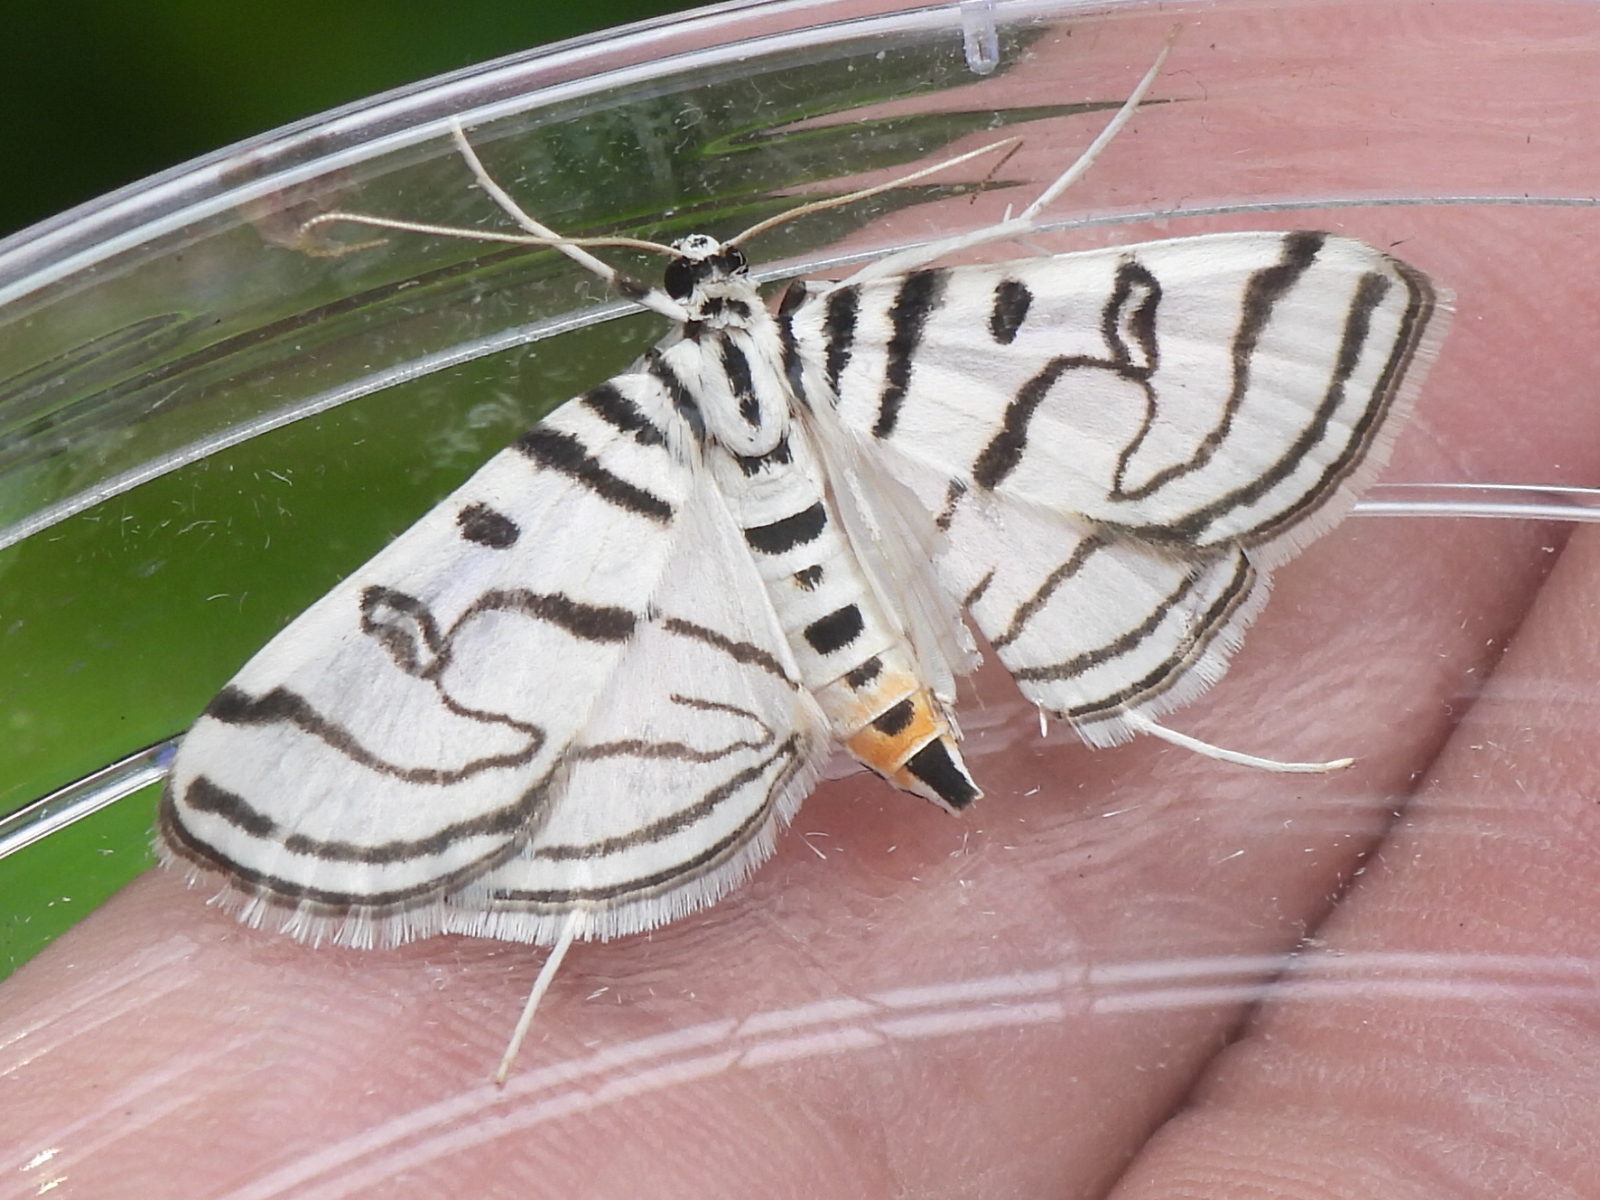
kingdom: Animalia
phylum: Arthropoda
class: Insecta
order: Lepidoptera
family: Crambidae
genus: Conchylodes
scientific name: Conchylodes ovulalis
